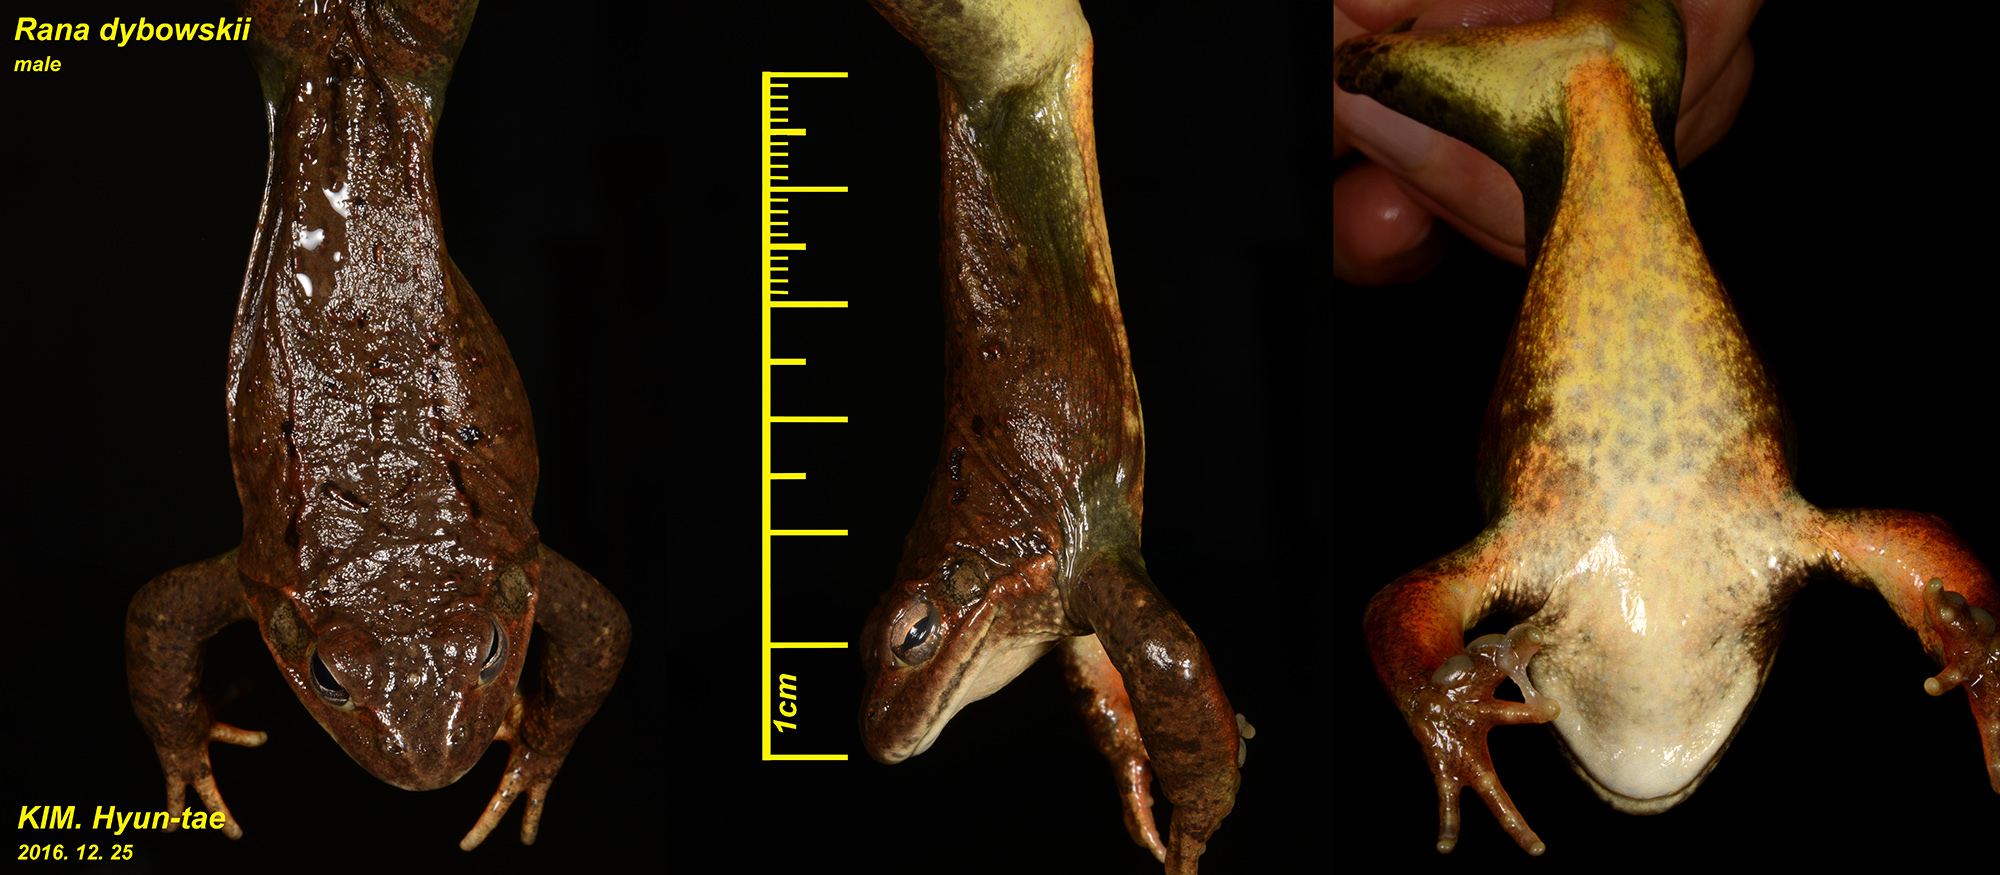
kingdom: Animalia
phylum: Chordata
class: Amphibia
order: Anura
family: Ranidae
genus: Rana
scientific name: Rana dybowskii
